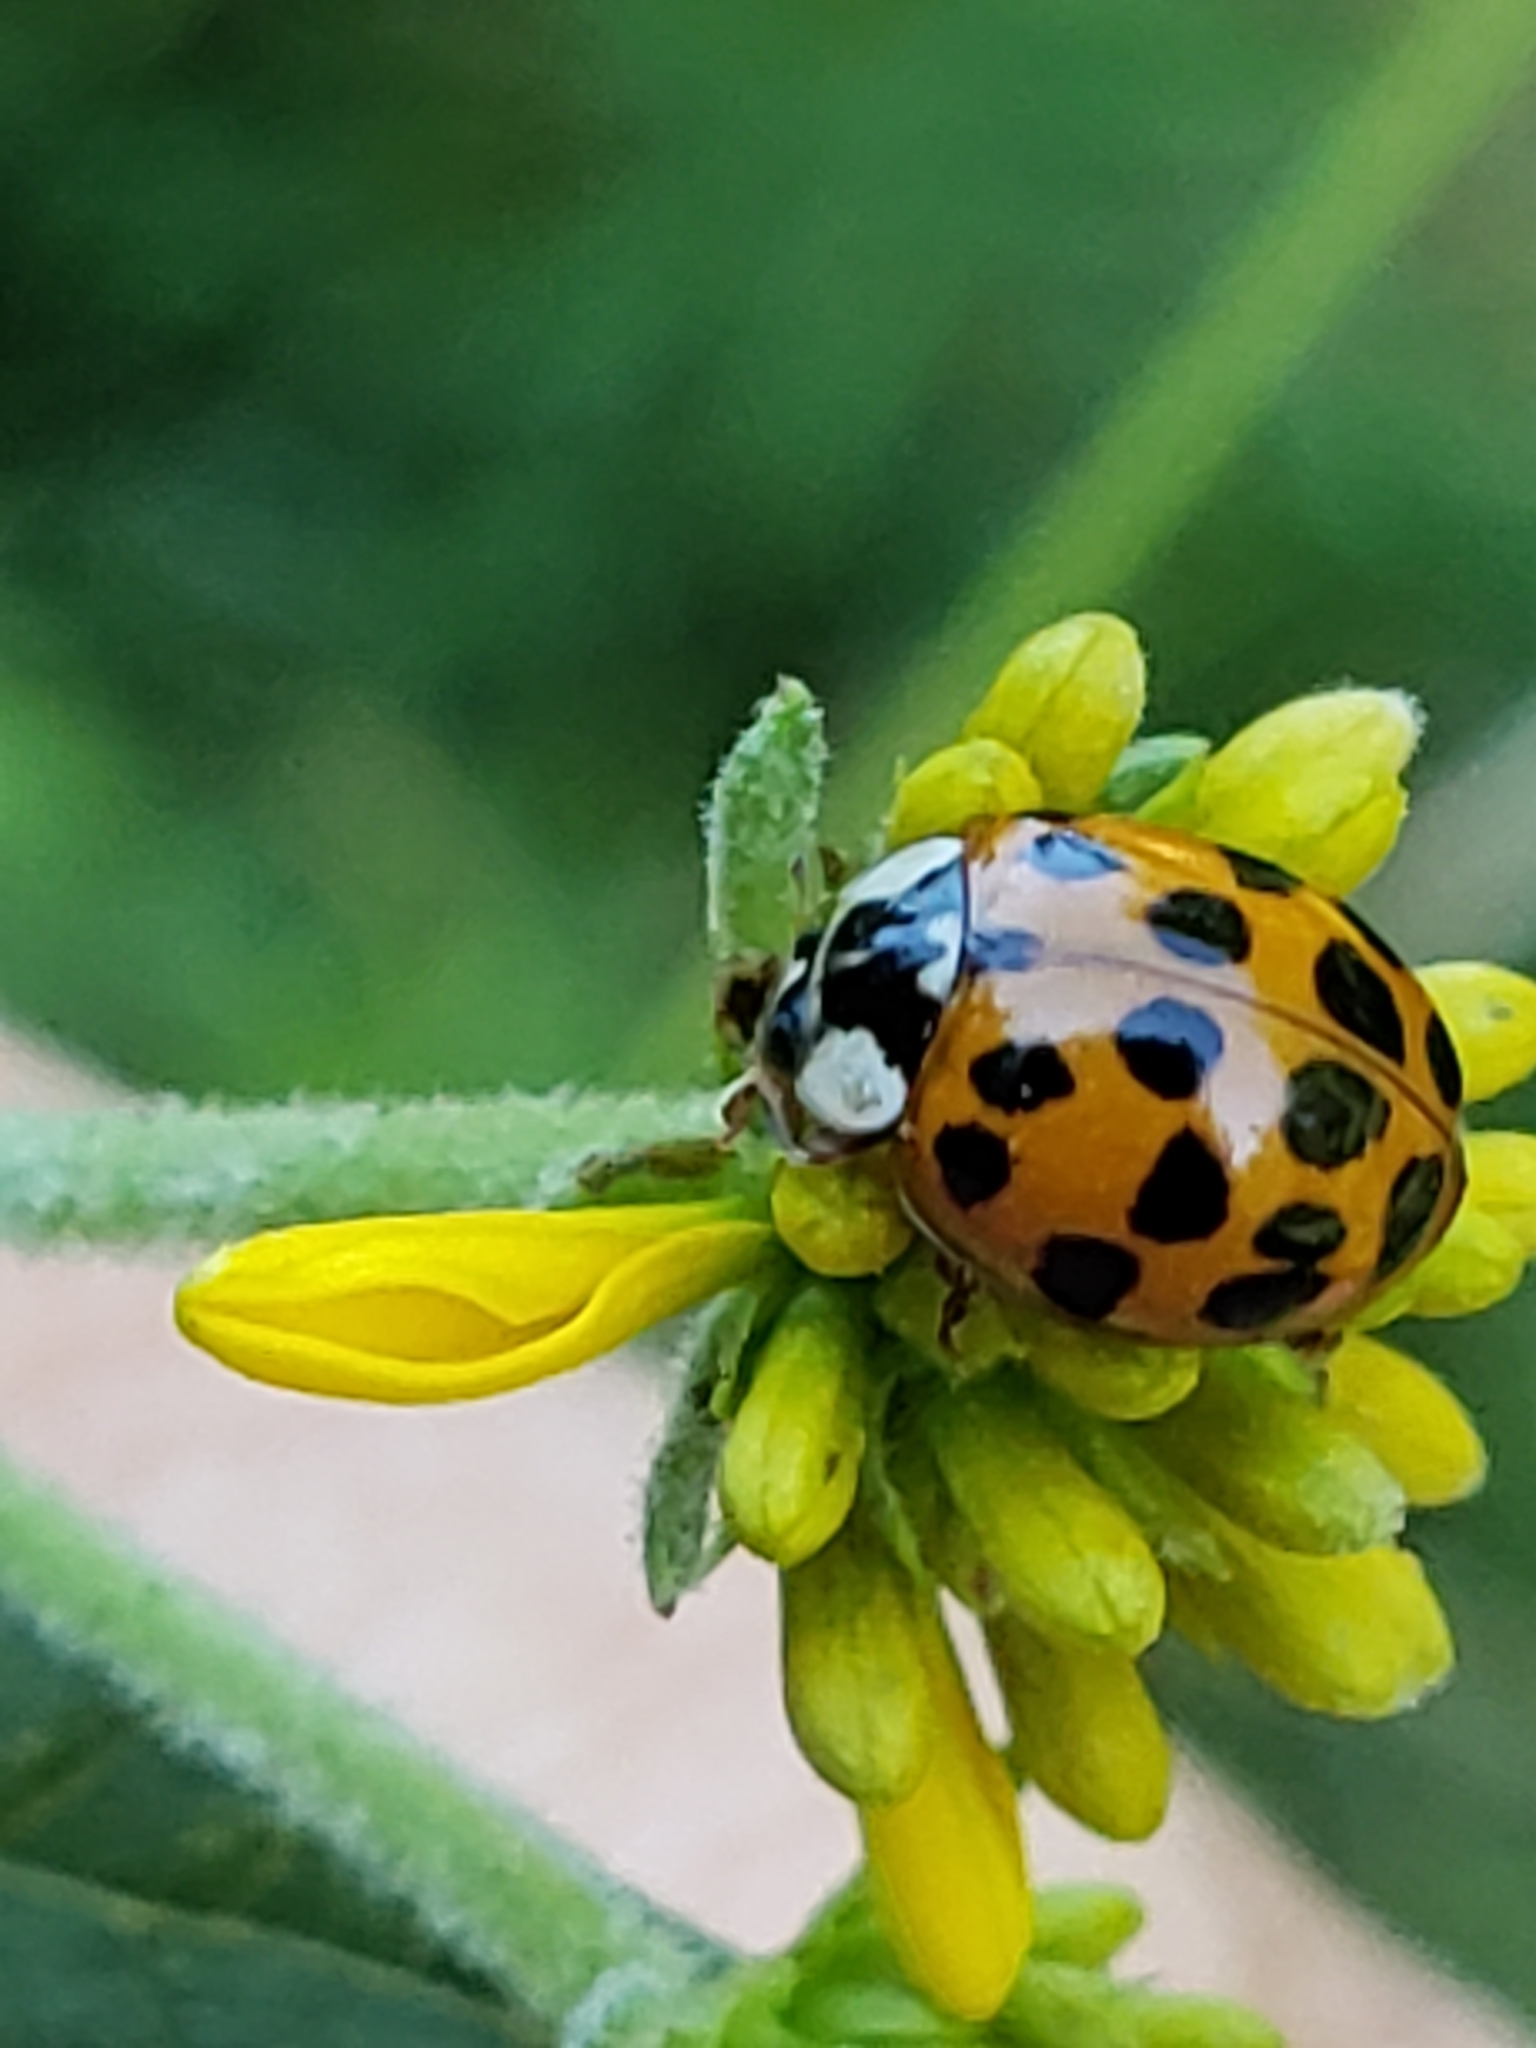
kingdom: Animalia
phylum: Arthropoda
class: Insecta
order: Coleoptera
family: Coccinellidae
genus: Harmonia
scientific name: Harmonia axyridis
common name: Harlequin ladybird
